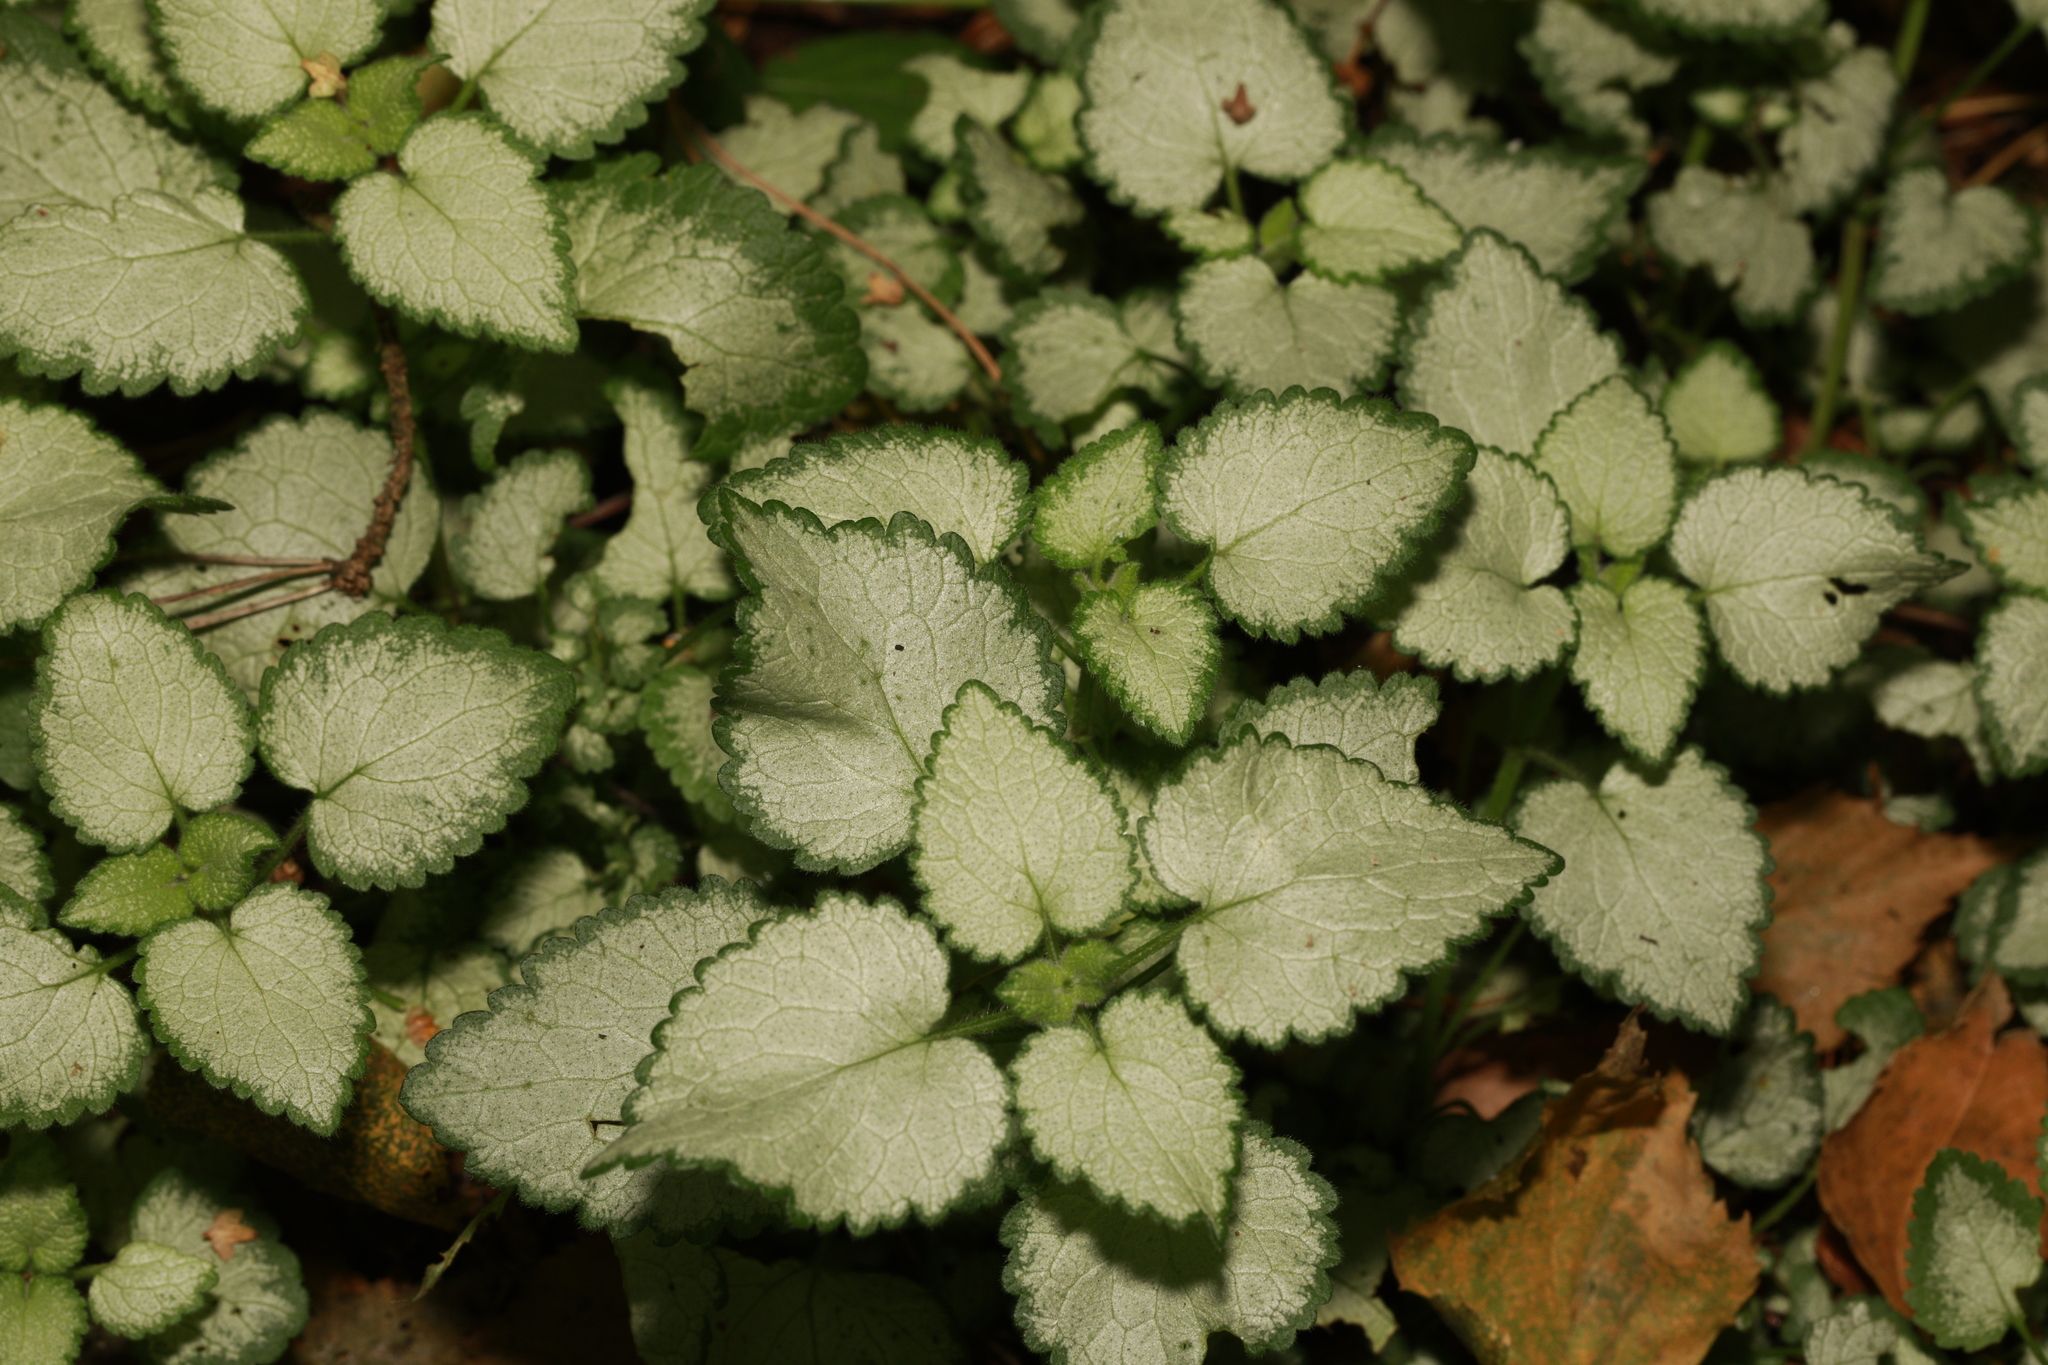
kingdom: Plantae
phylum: Tracheophyta
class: Magnoliopsida
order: Lamiales
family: Lamiaceae
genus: Lamium
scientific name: Lamium maculatum
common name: Spotted dead-nettle
